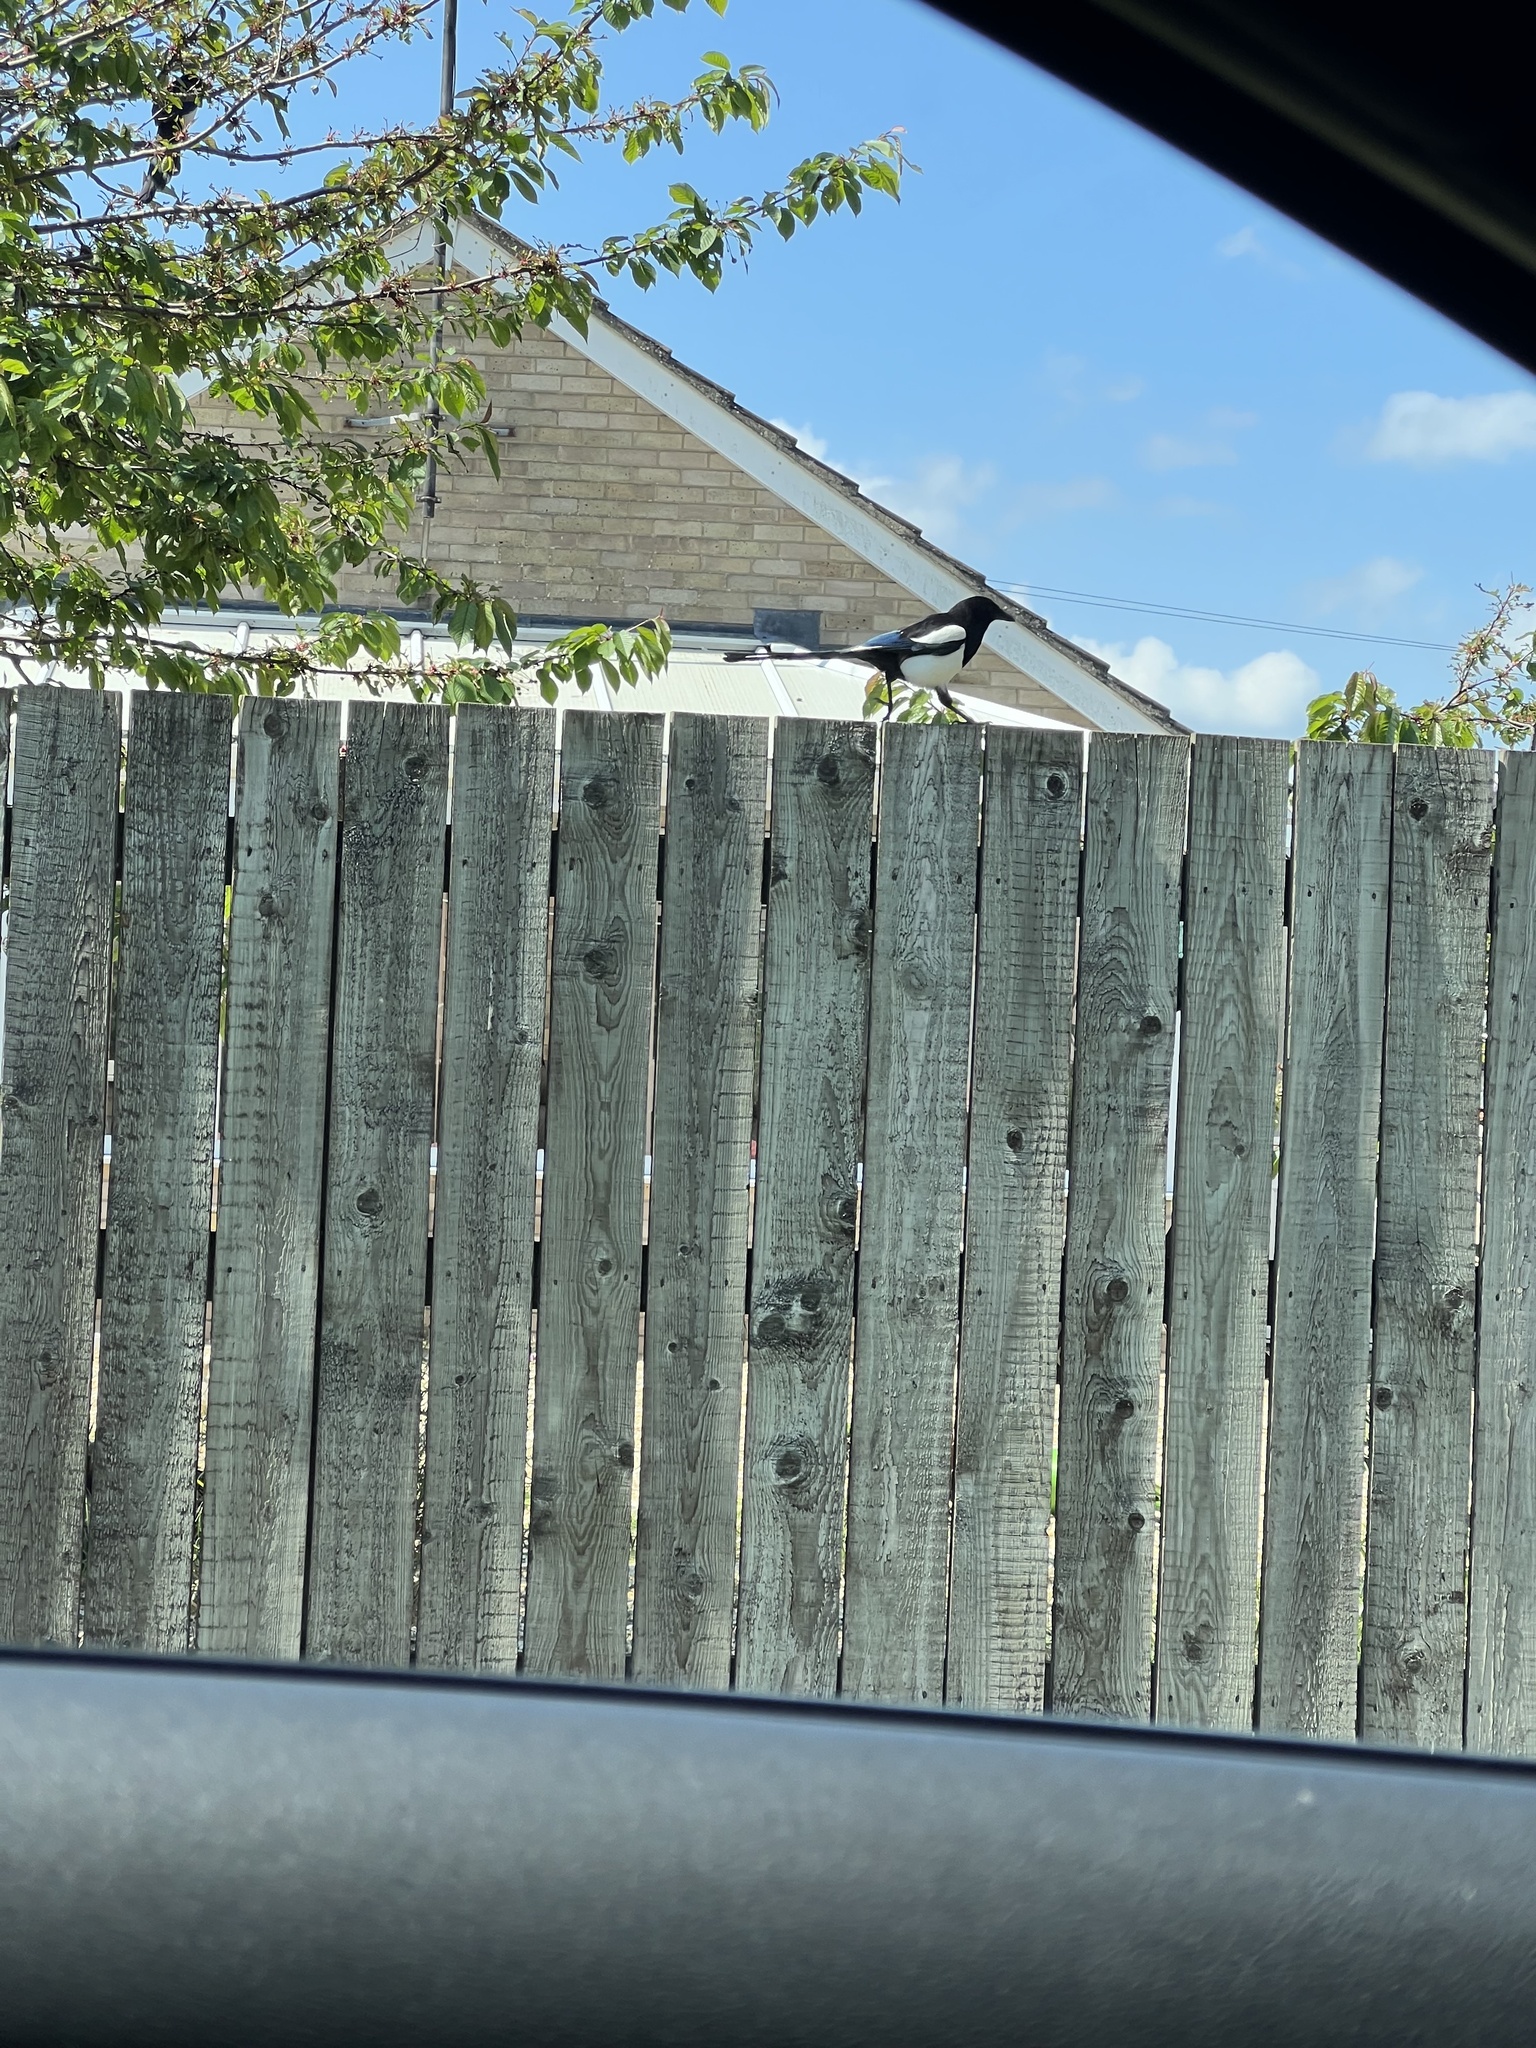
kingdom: Animalia
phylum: Chordata
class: Aves
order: Passeriformes
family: Corvidae
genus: Pica
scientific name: Pica pica
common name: Eurasian magpie
